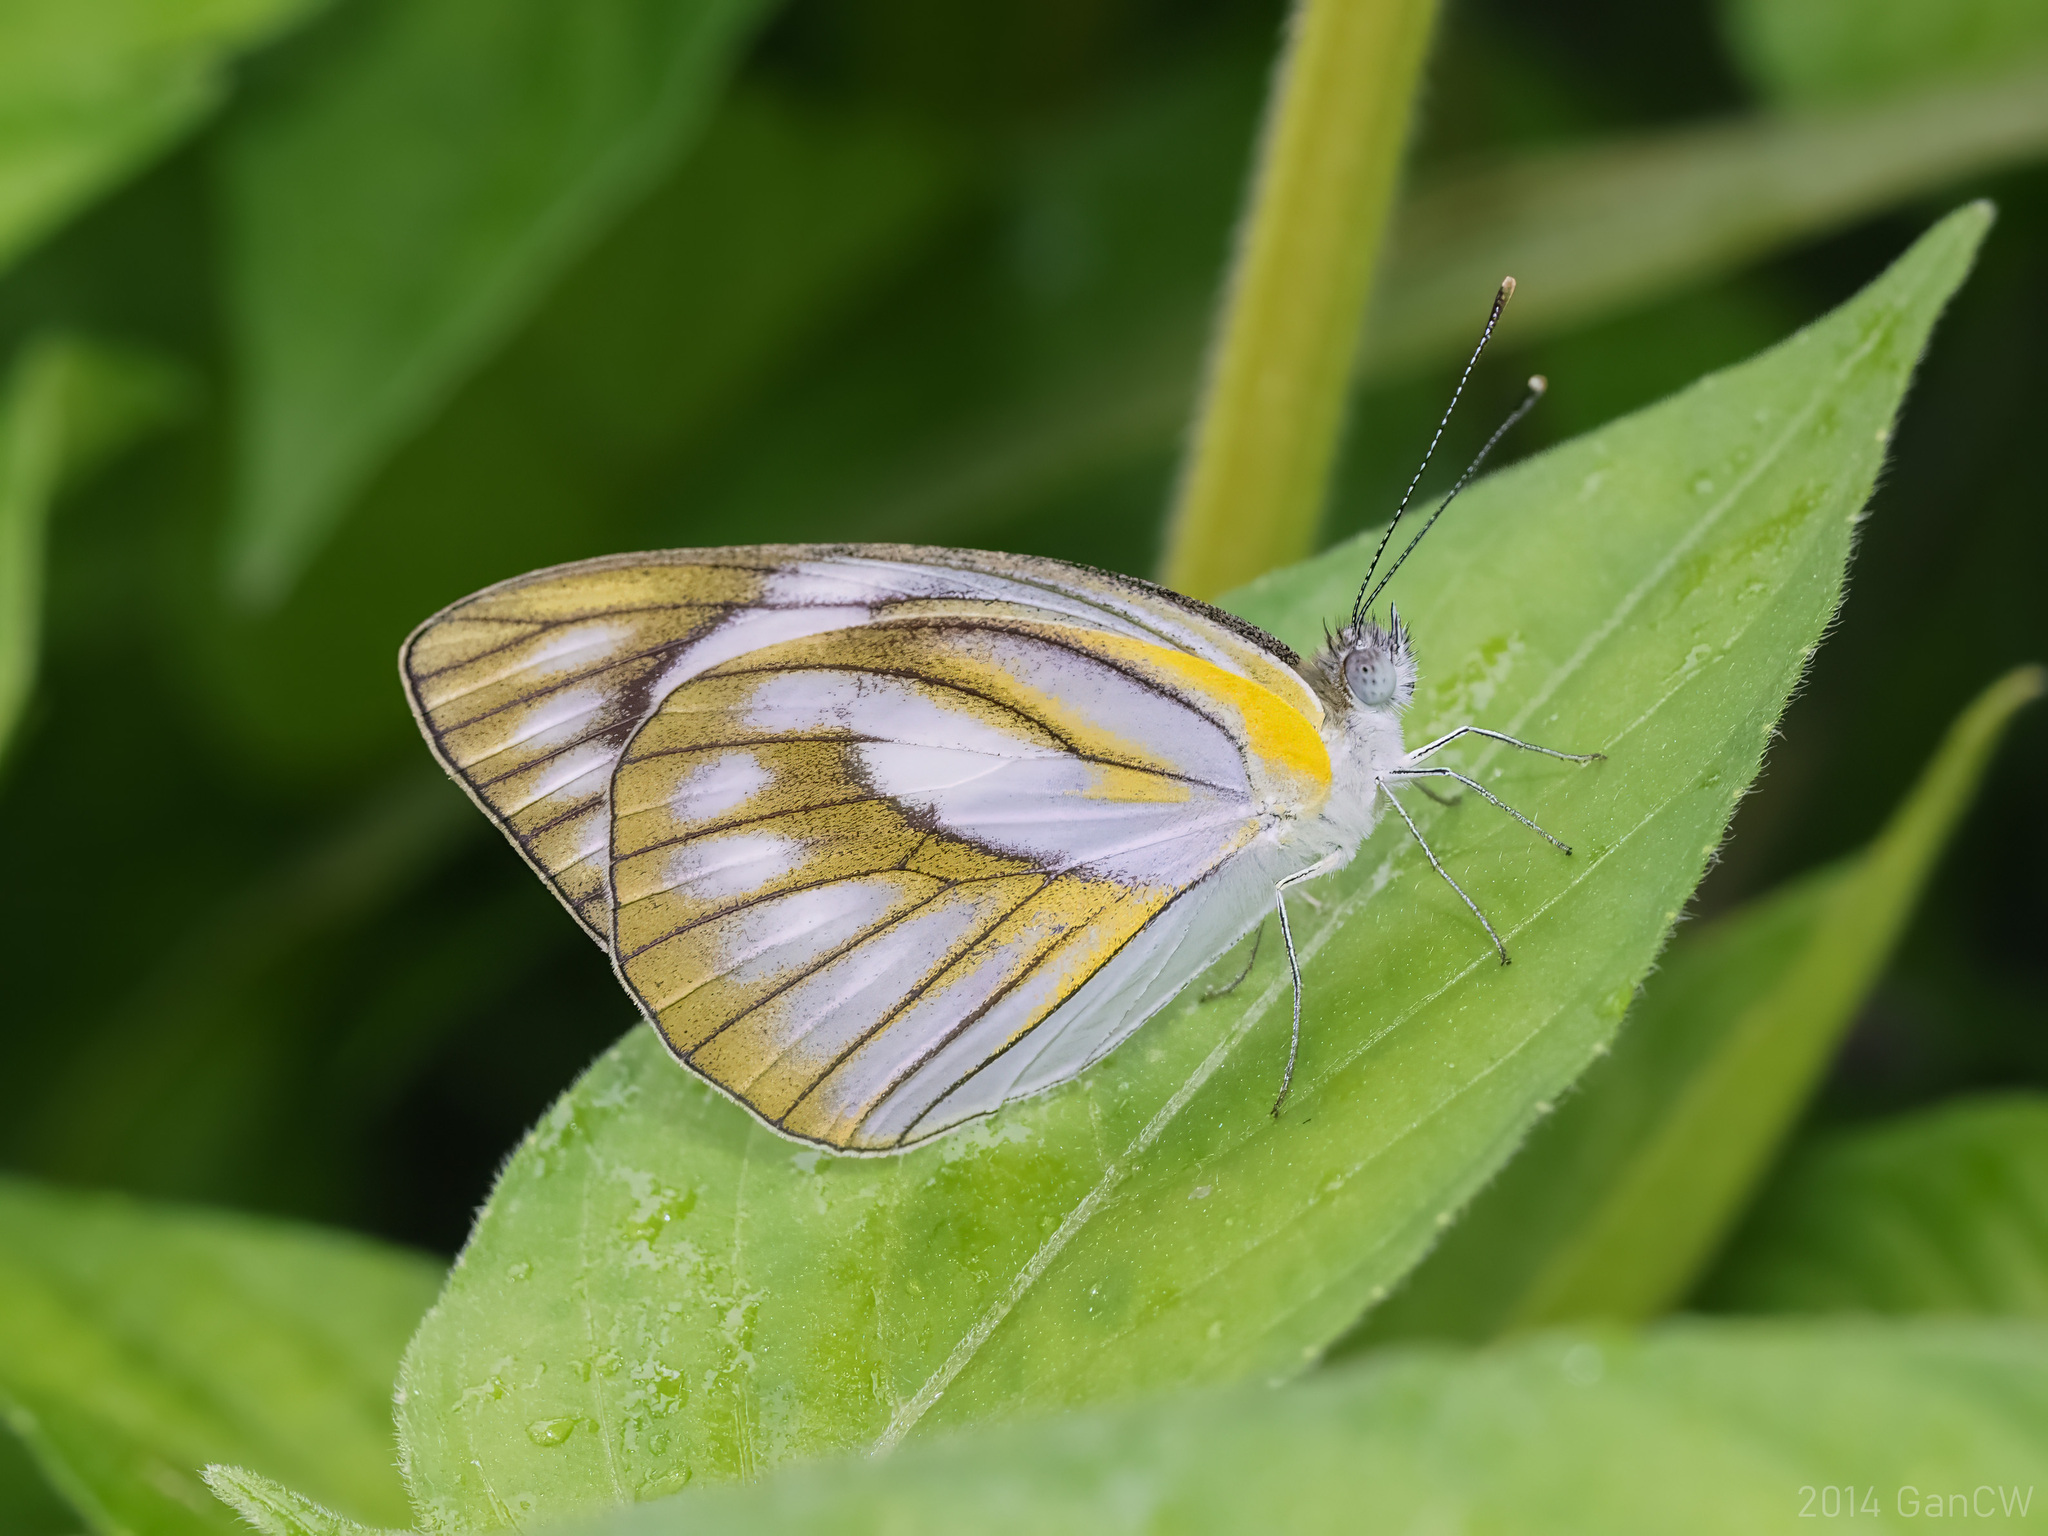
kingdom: Animalia
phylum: Arthropoda
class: Insecta
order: Lepidoptera
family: Pieridae
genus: Appias
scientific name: Appias libythea
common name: Striped albatross
